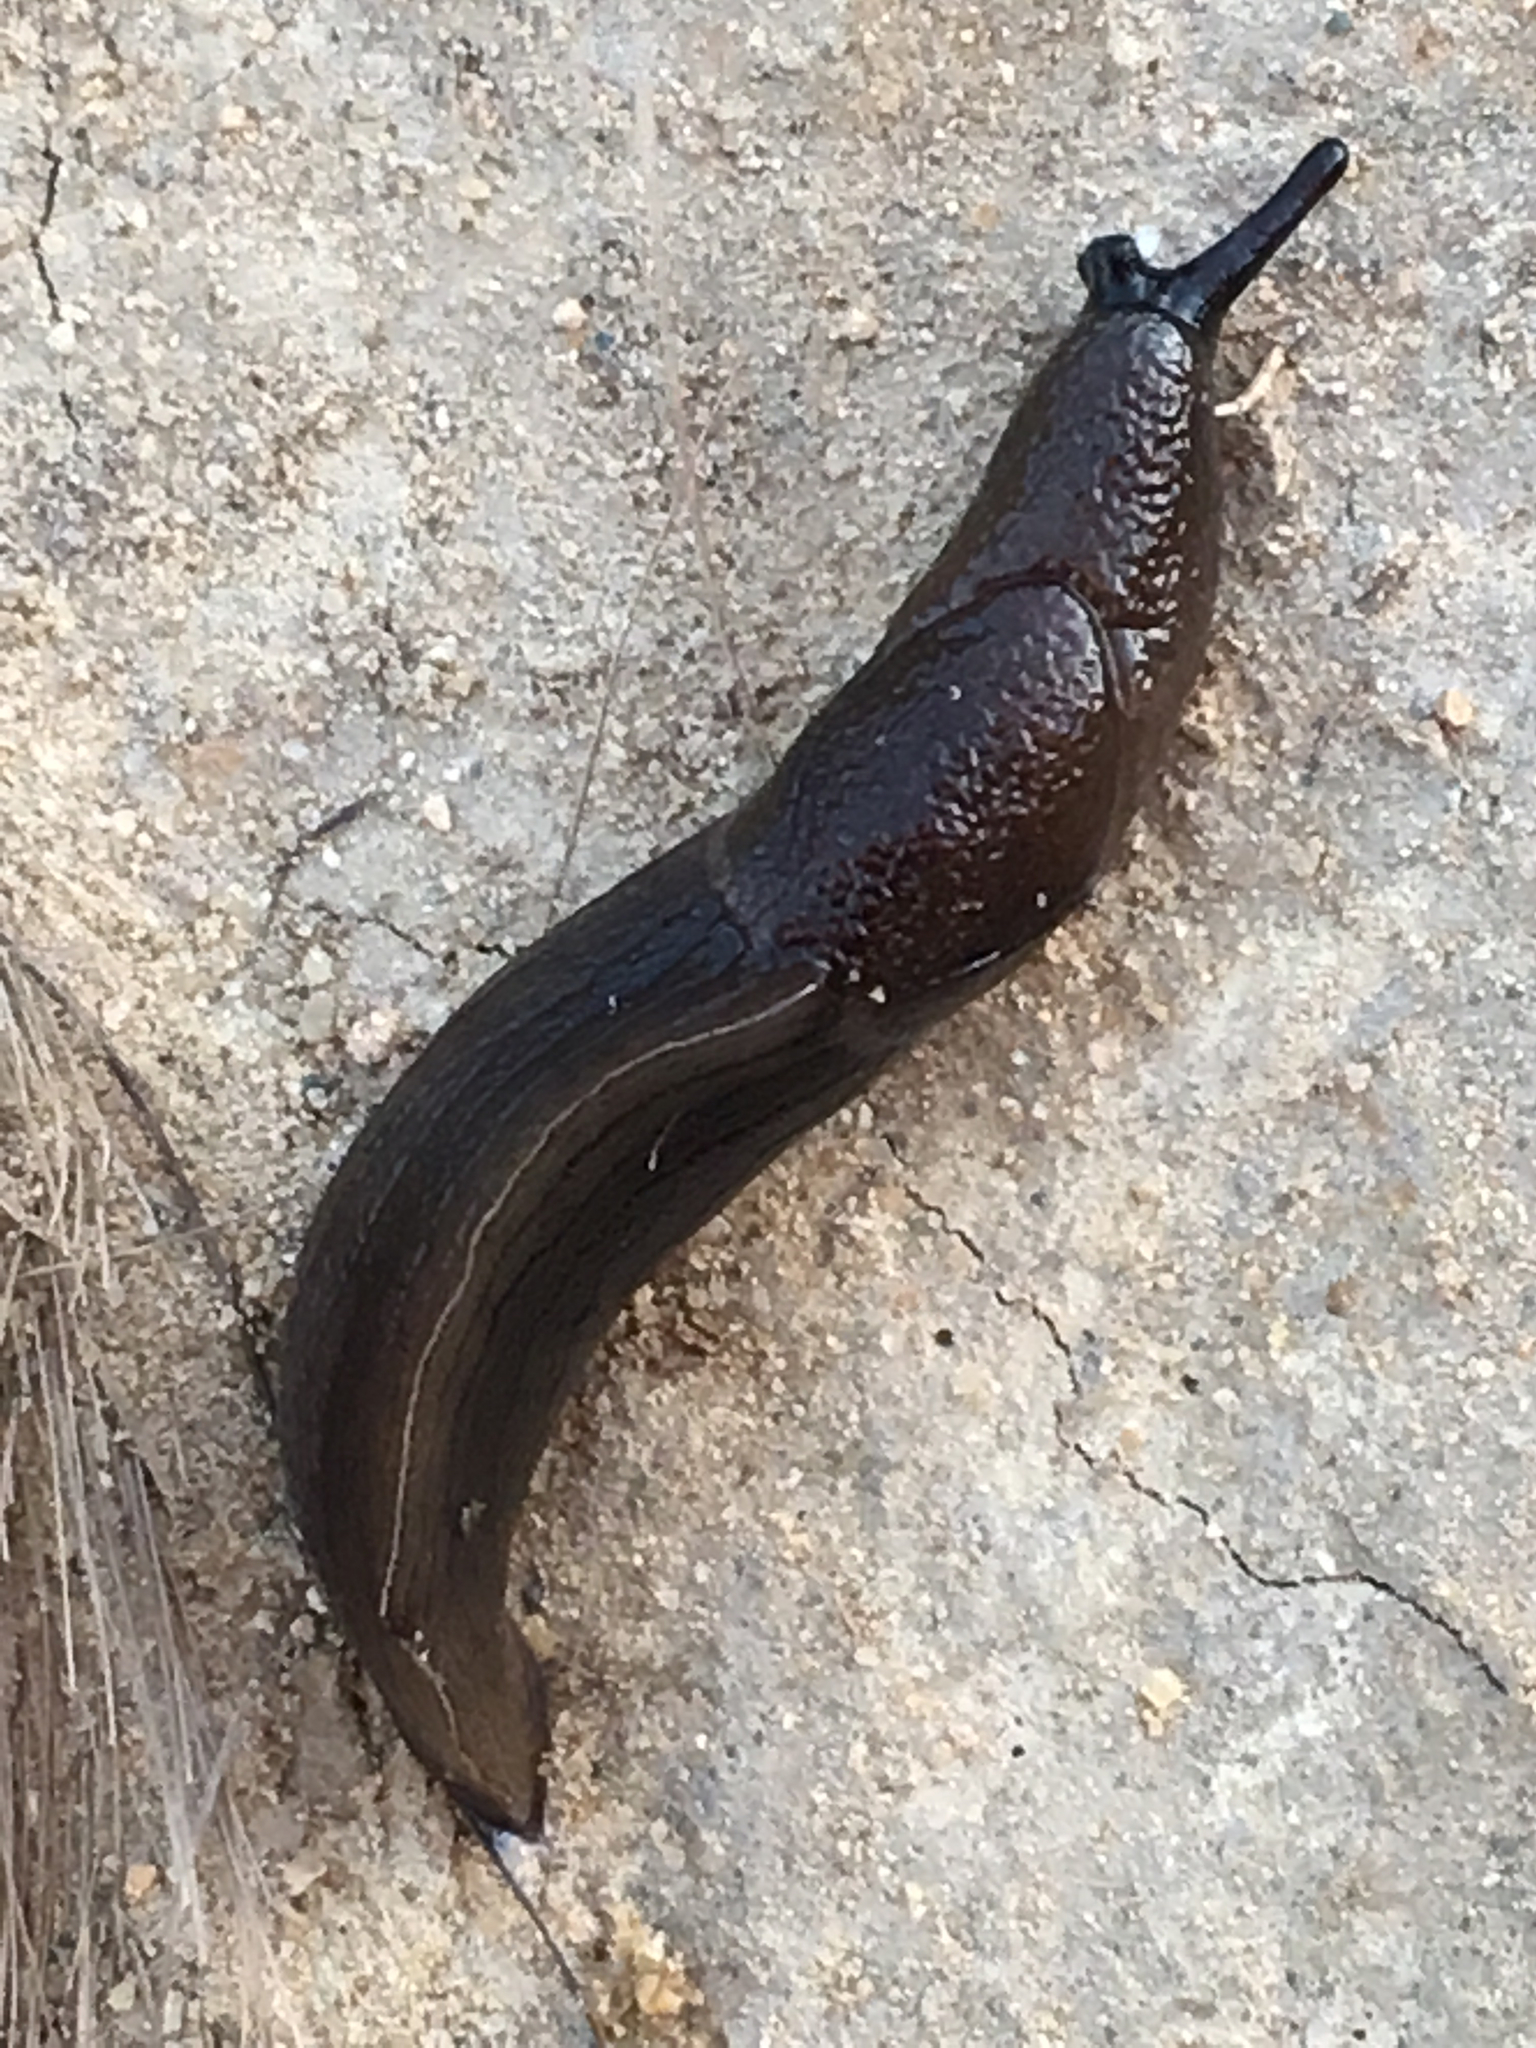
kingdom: Animalia
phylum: Mollusca
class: Gastropoda
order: Stylommatophora
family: Milacidae
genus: Milax
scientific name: Milax gagates
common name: Greenhouse slug
